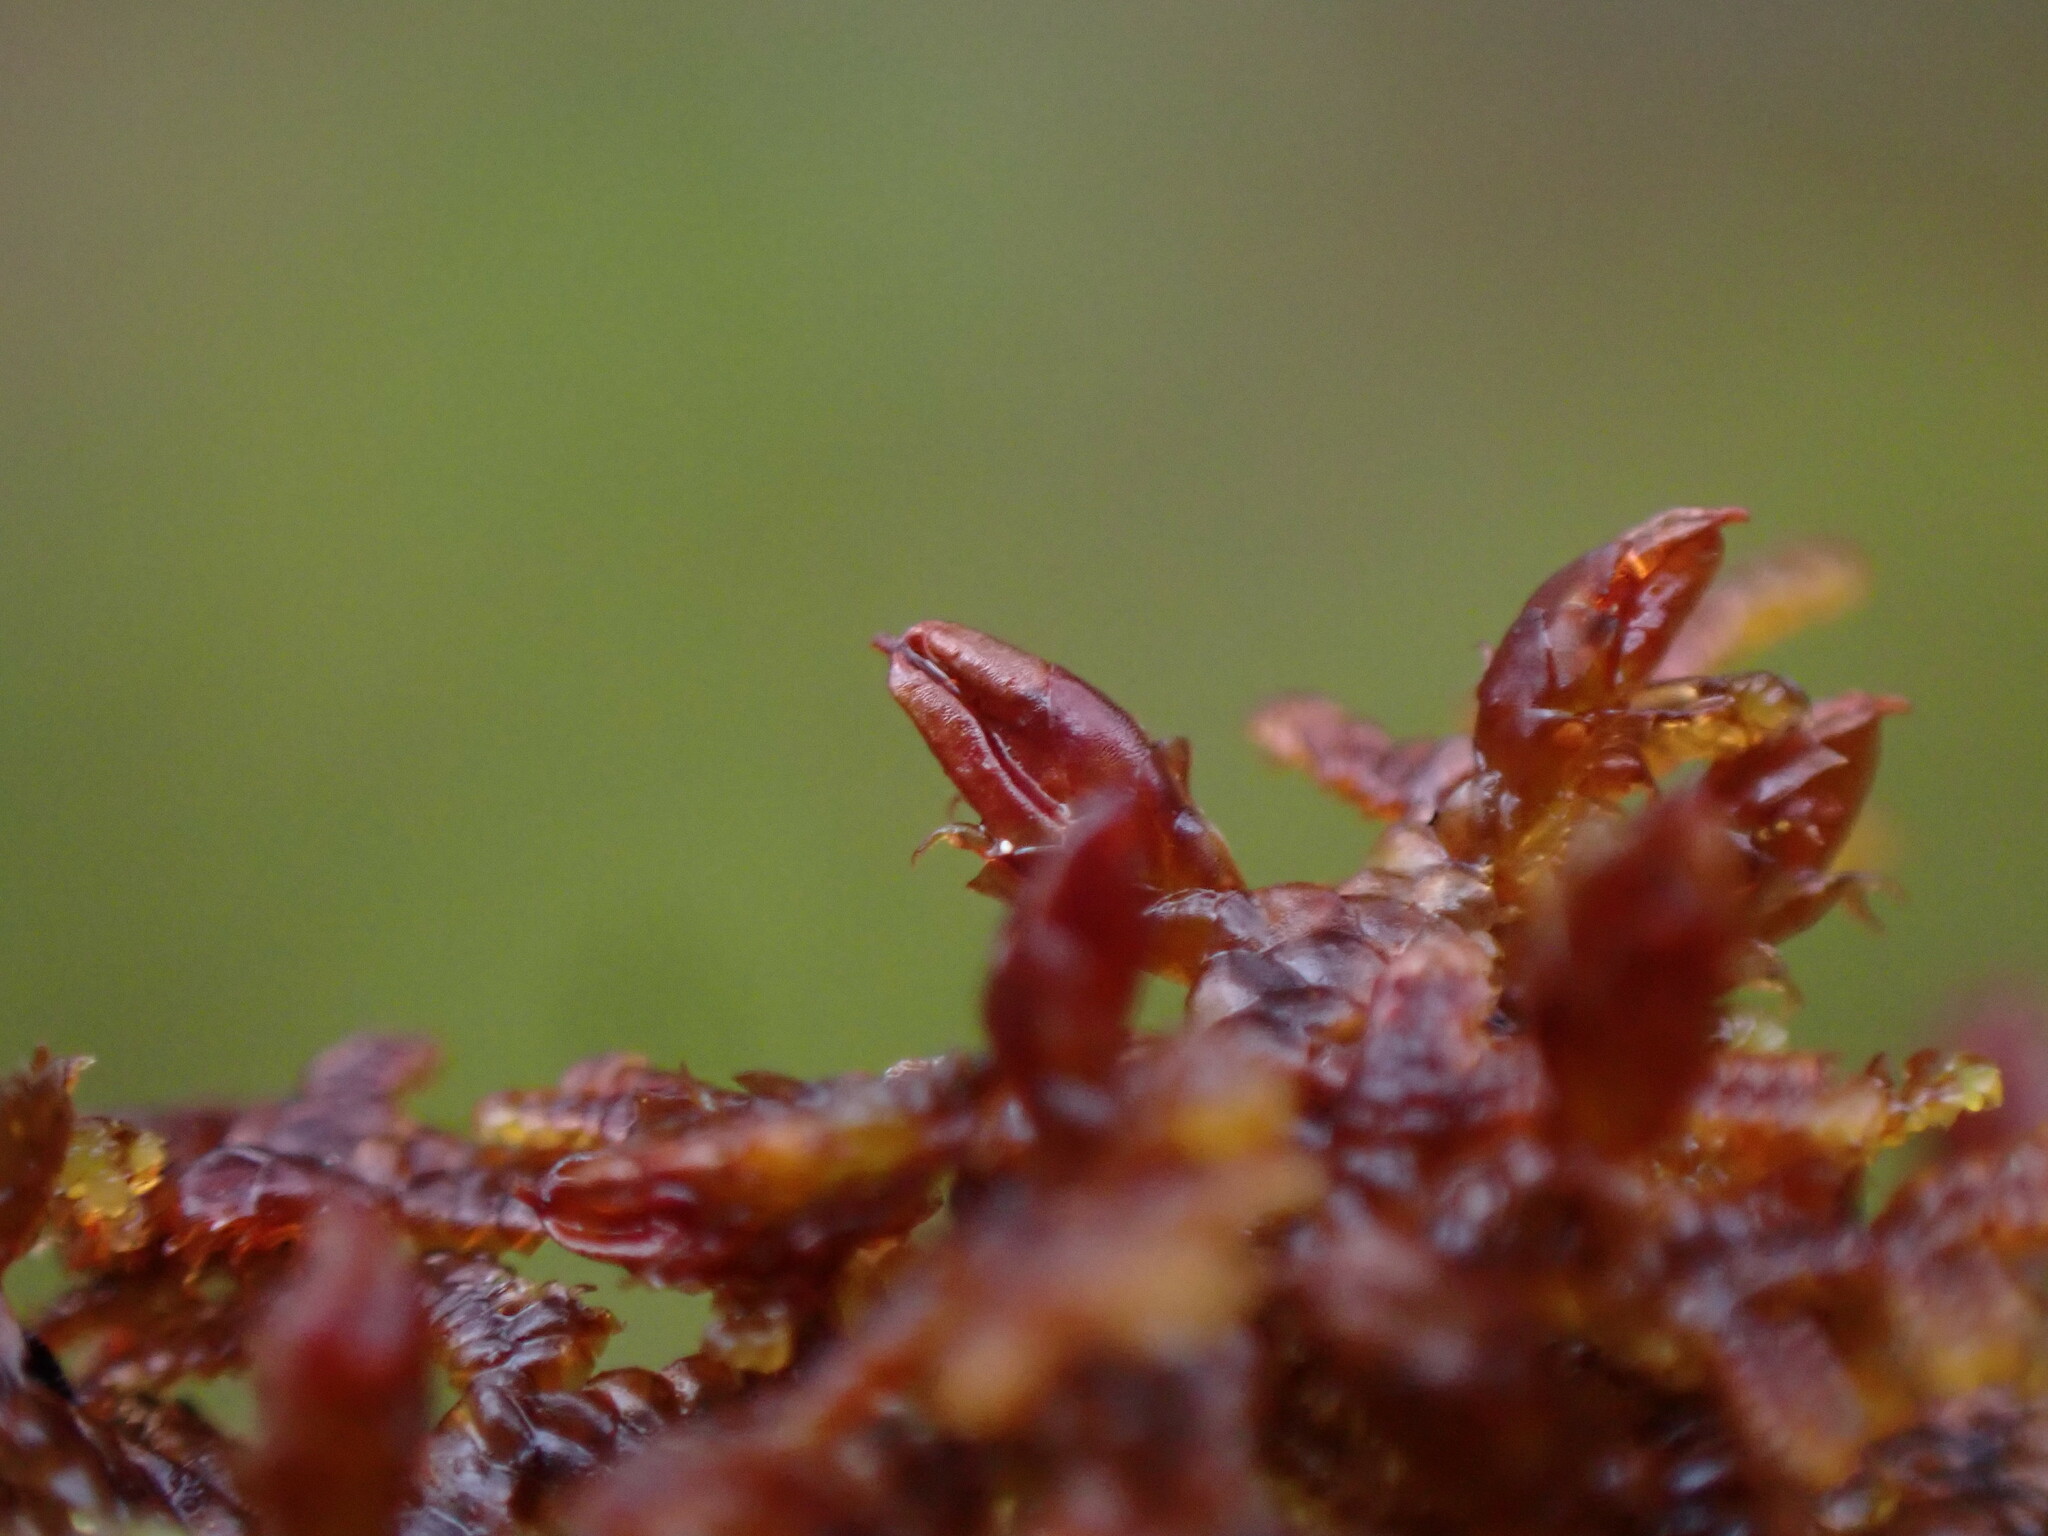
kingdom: Plantae
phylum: Marchantiophyta
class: Jungermanniopsida
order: Porellales
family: Frullaniaceae
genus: Frullania
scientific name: Frullania nisquallensis
